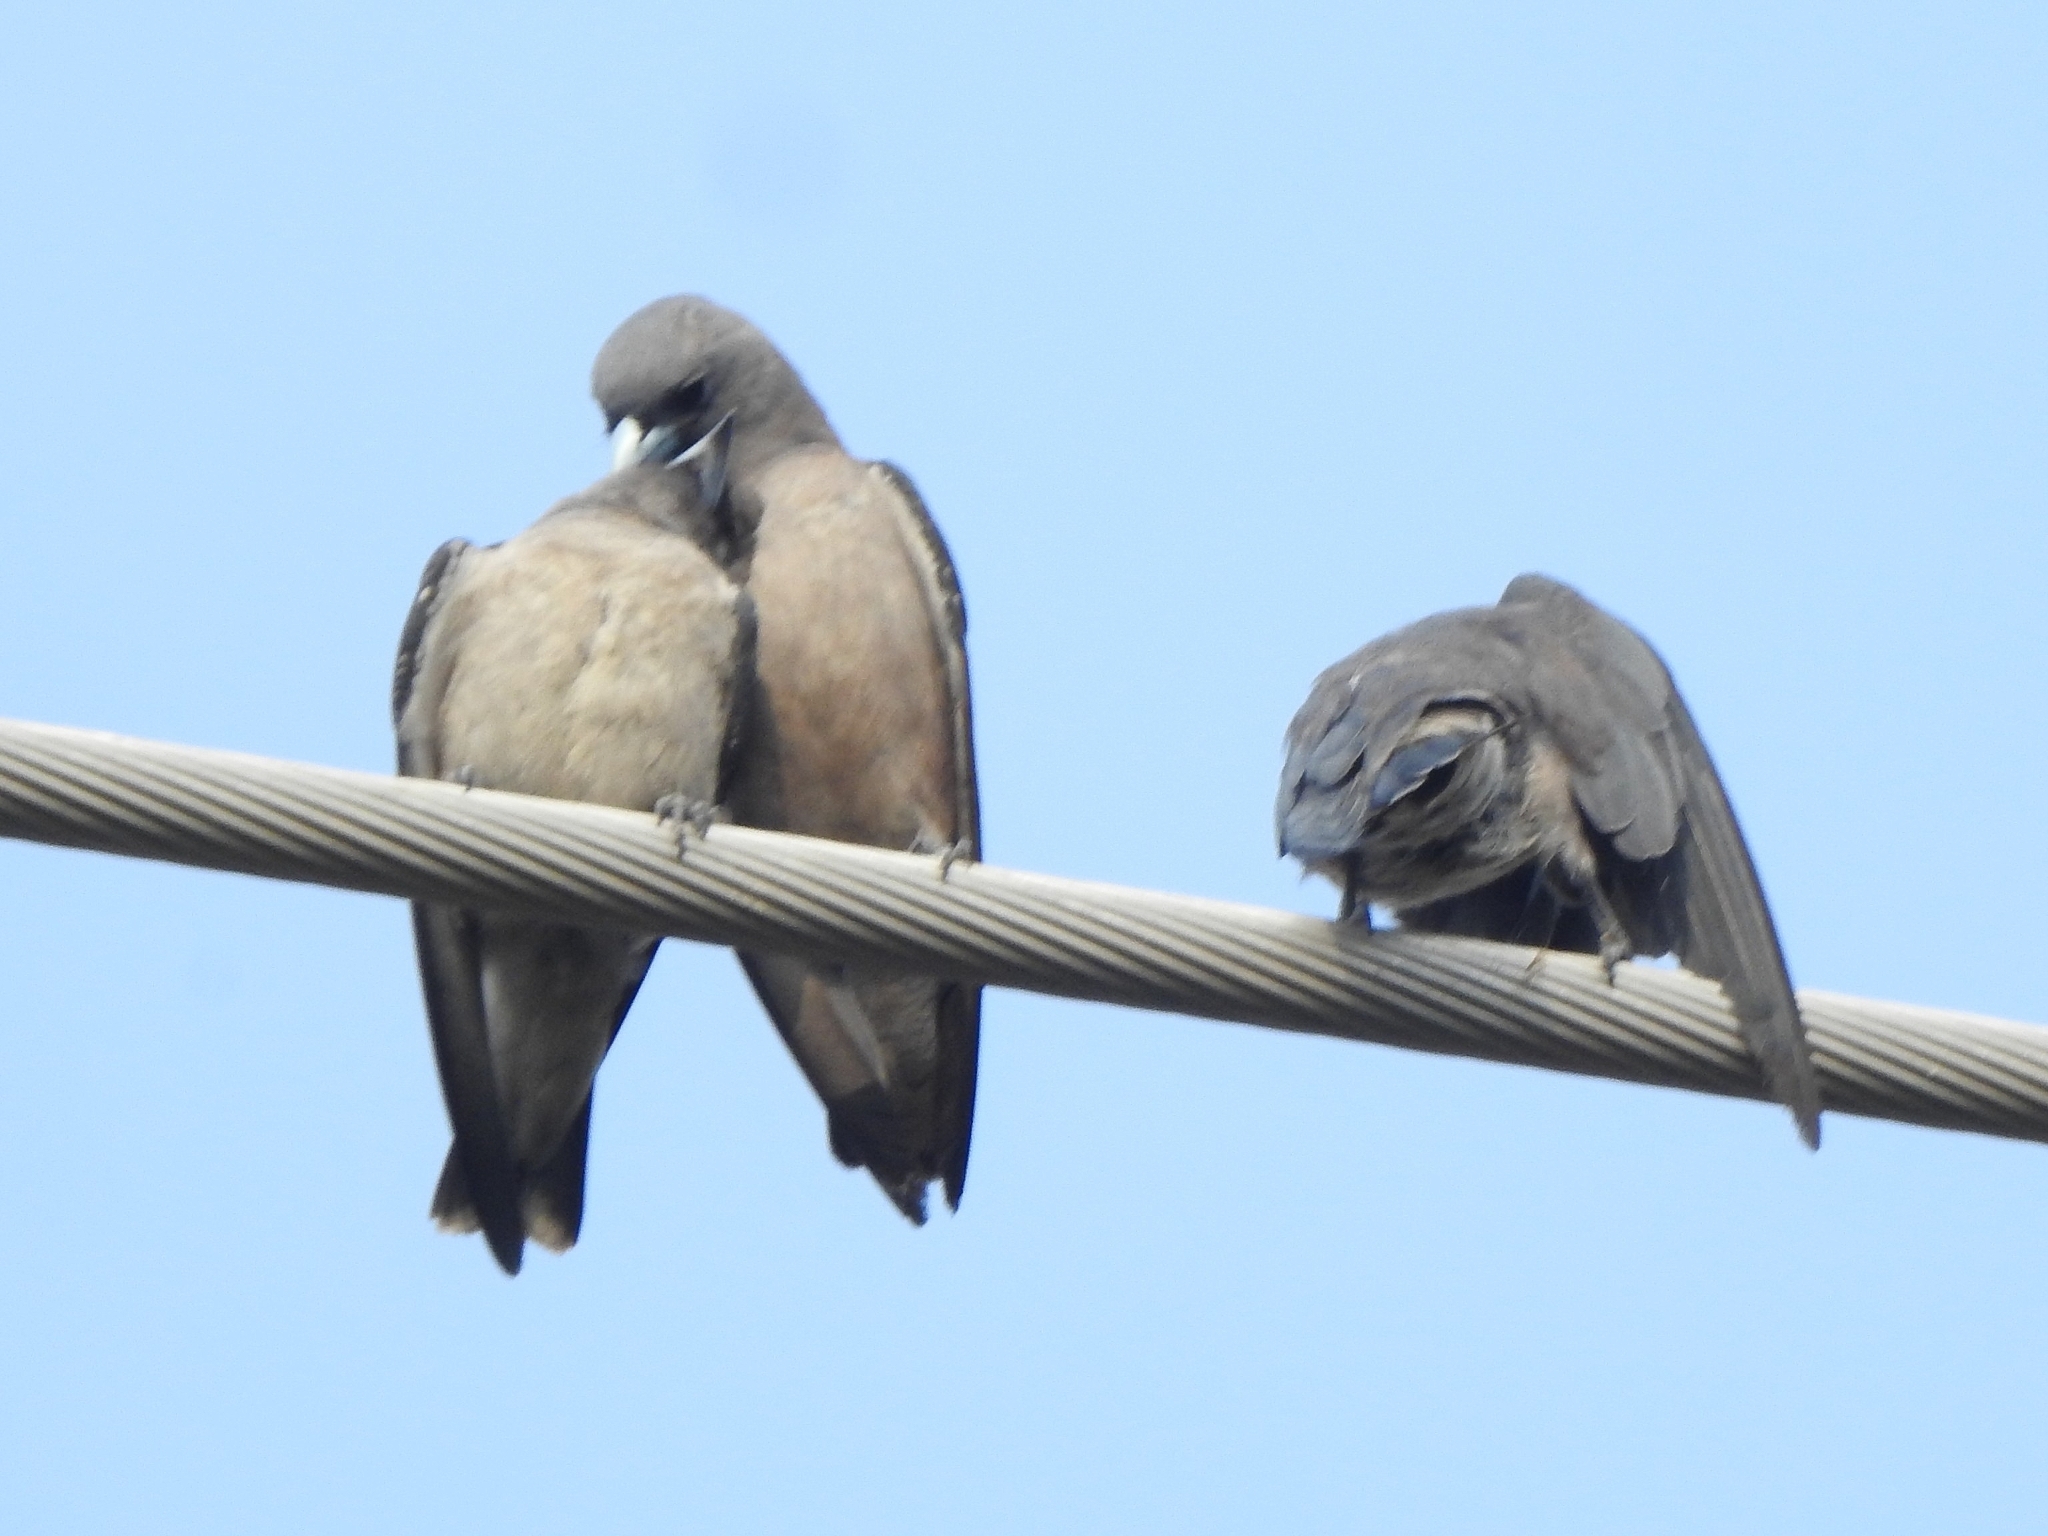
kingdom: Animalia
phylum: Chordata
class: Aves
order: Passeriformes
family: Artamidae
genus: Artamus
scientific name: Artamus fuscus
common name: Ashy woodswallow
